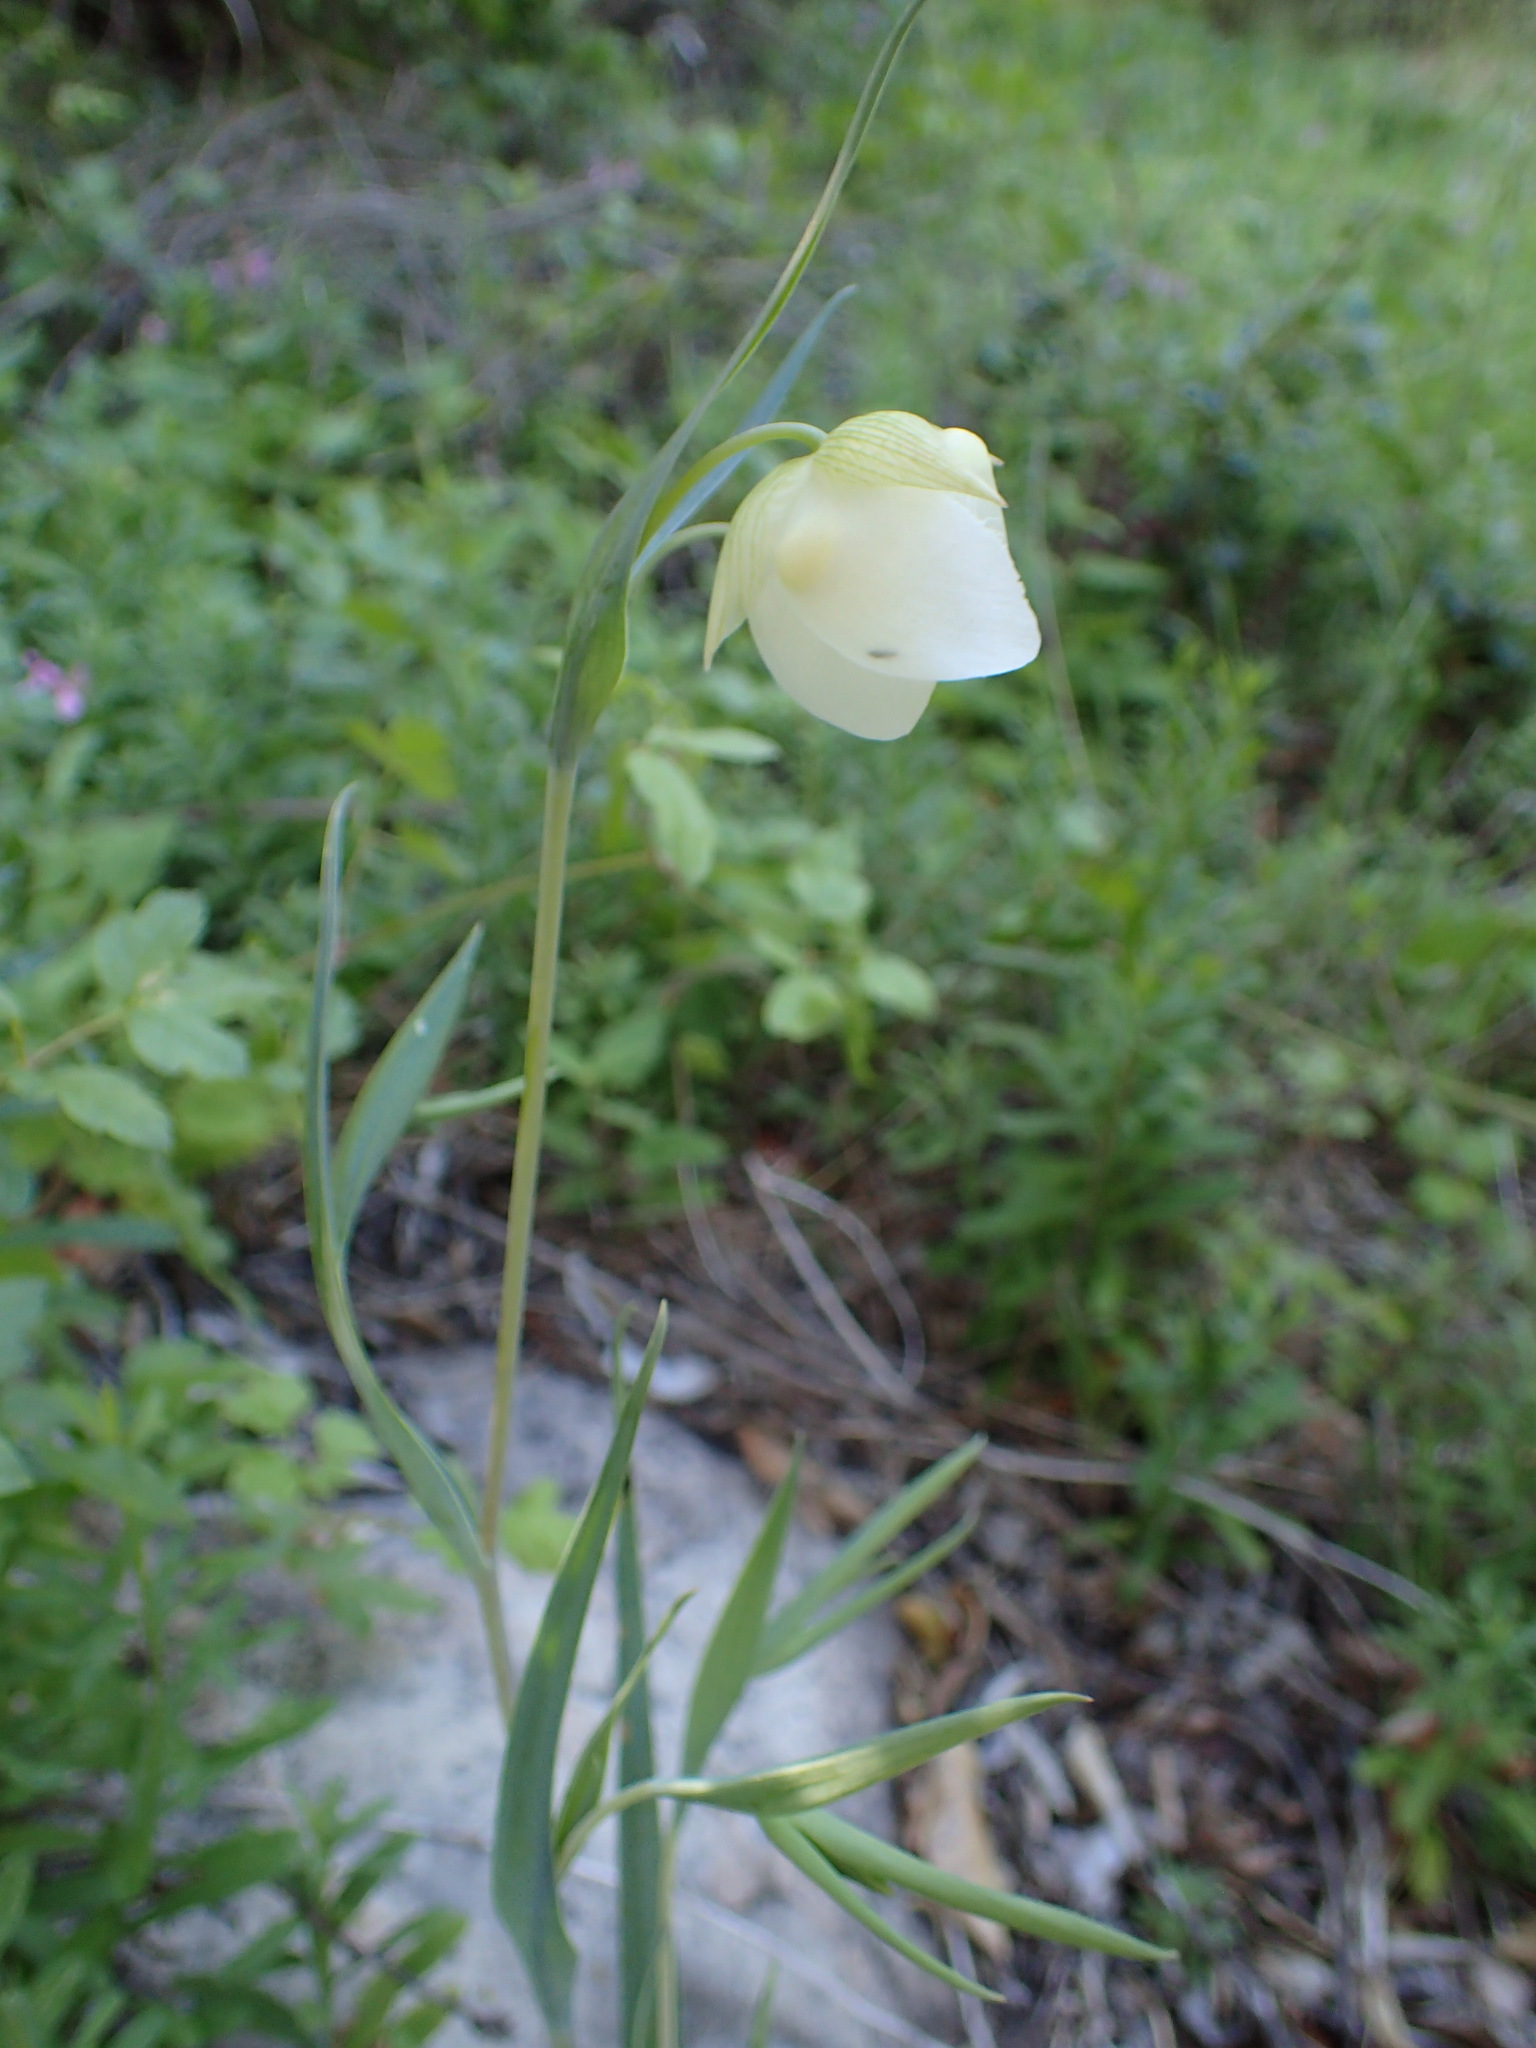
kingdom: Plantae
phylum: Tracheophyta
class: Liliopsida
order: Liliales
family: Liliaceae
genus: Calochortus
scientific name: Calochortus albus
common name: Fairy-lantern
